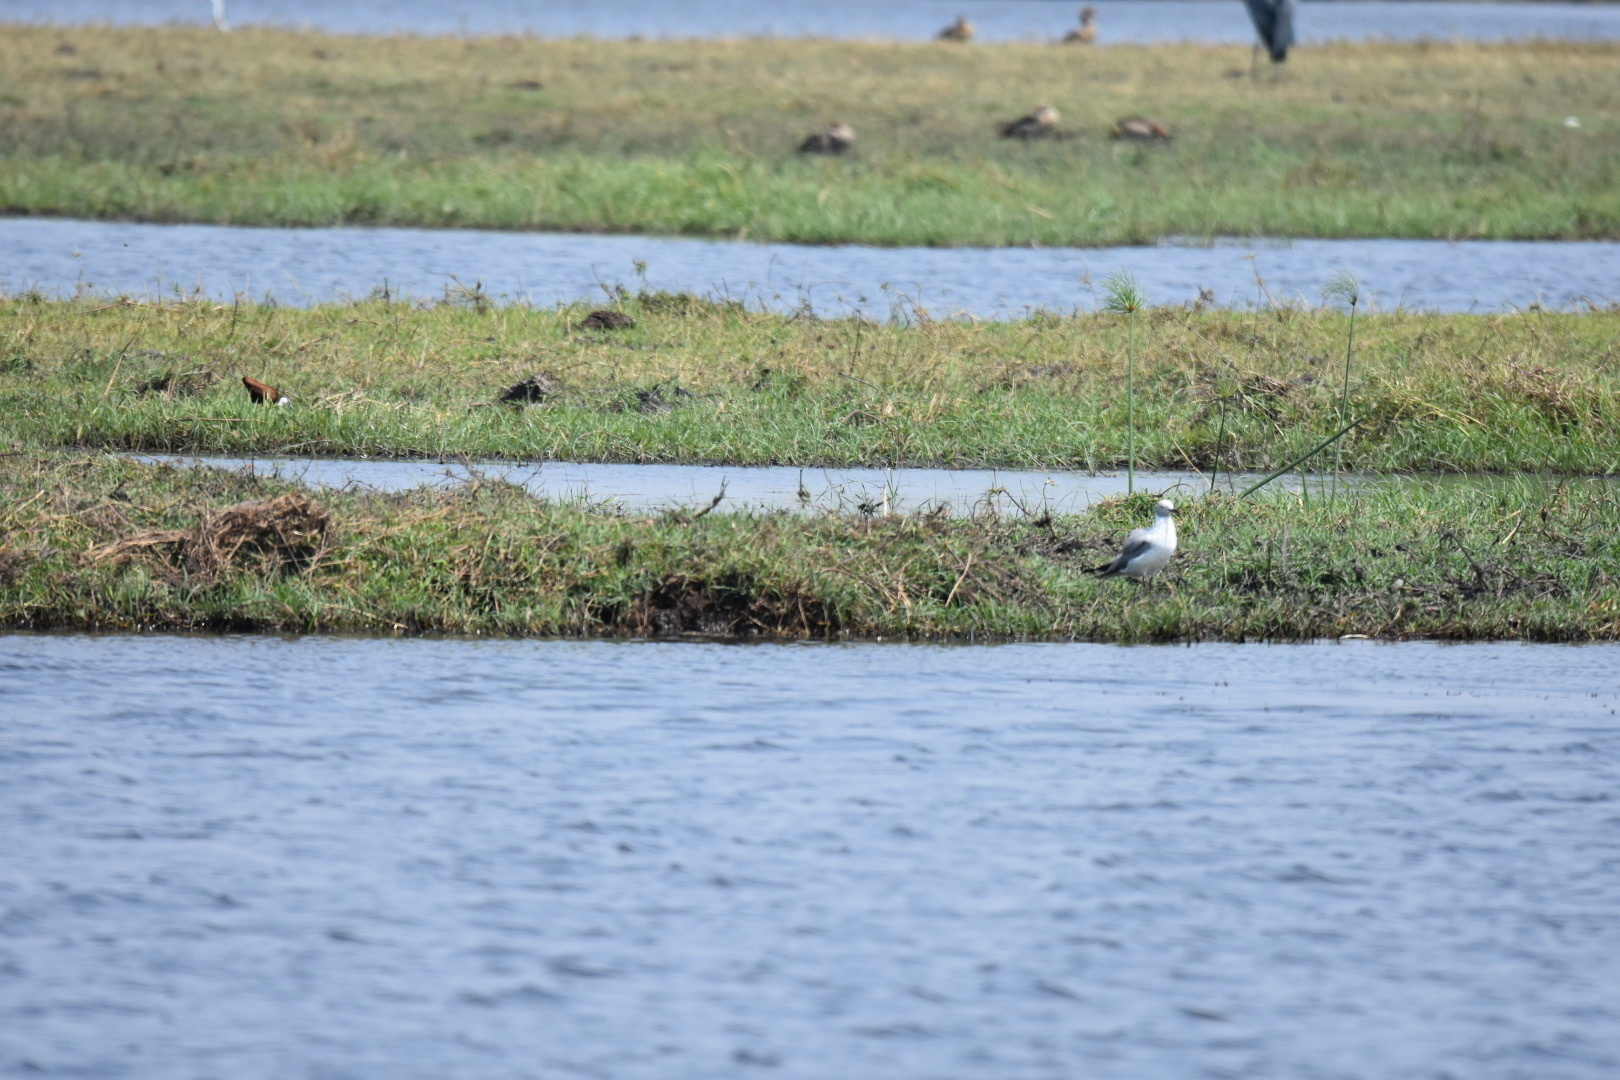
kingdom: Animalia
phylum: Chordata
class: Aves
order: Charadriiformes
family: Laridae
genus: Chroicocephalus
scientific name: Chroicocephalus cirrocephalus
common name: Grey-headed gull
